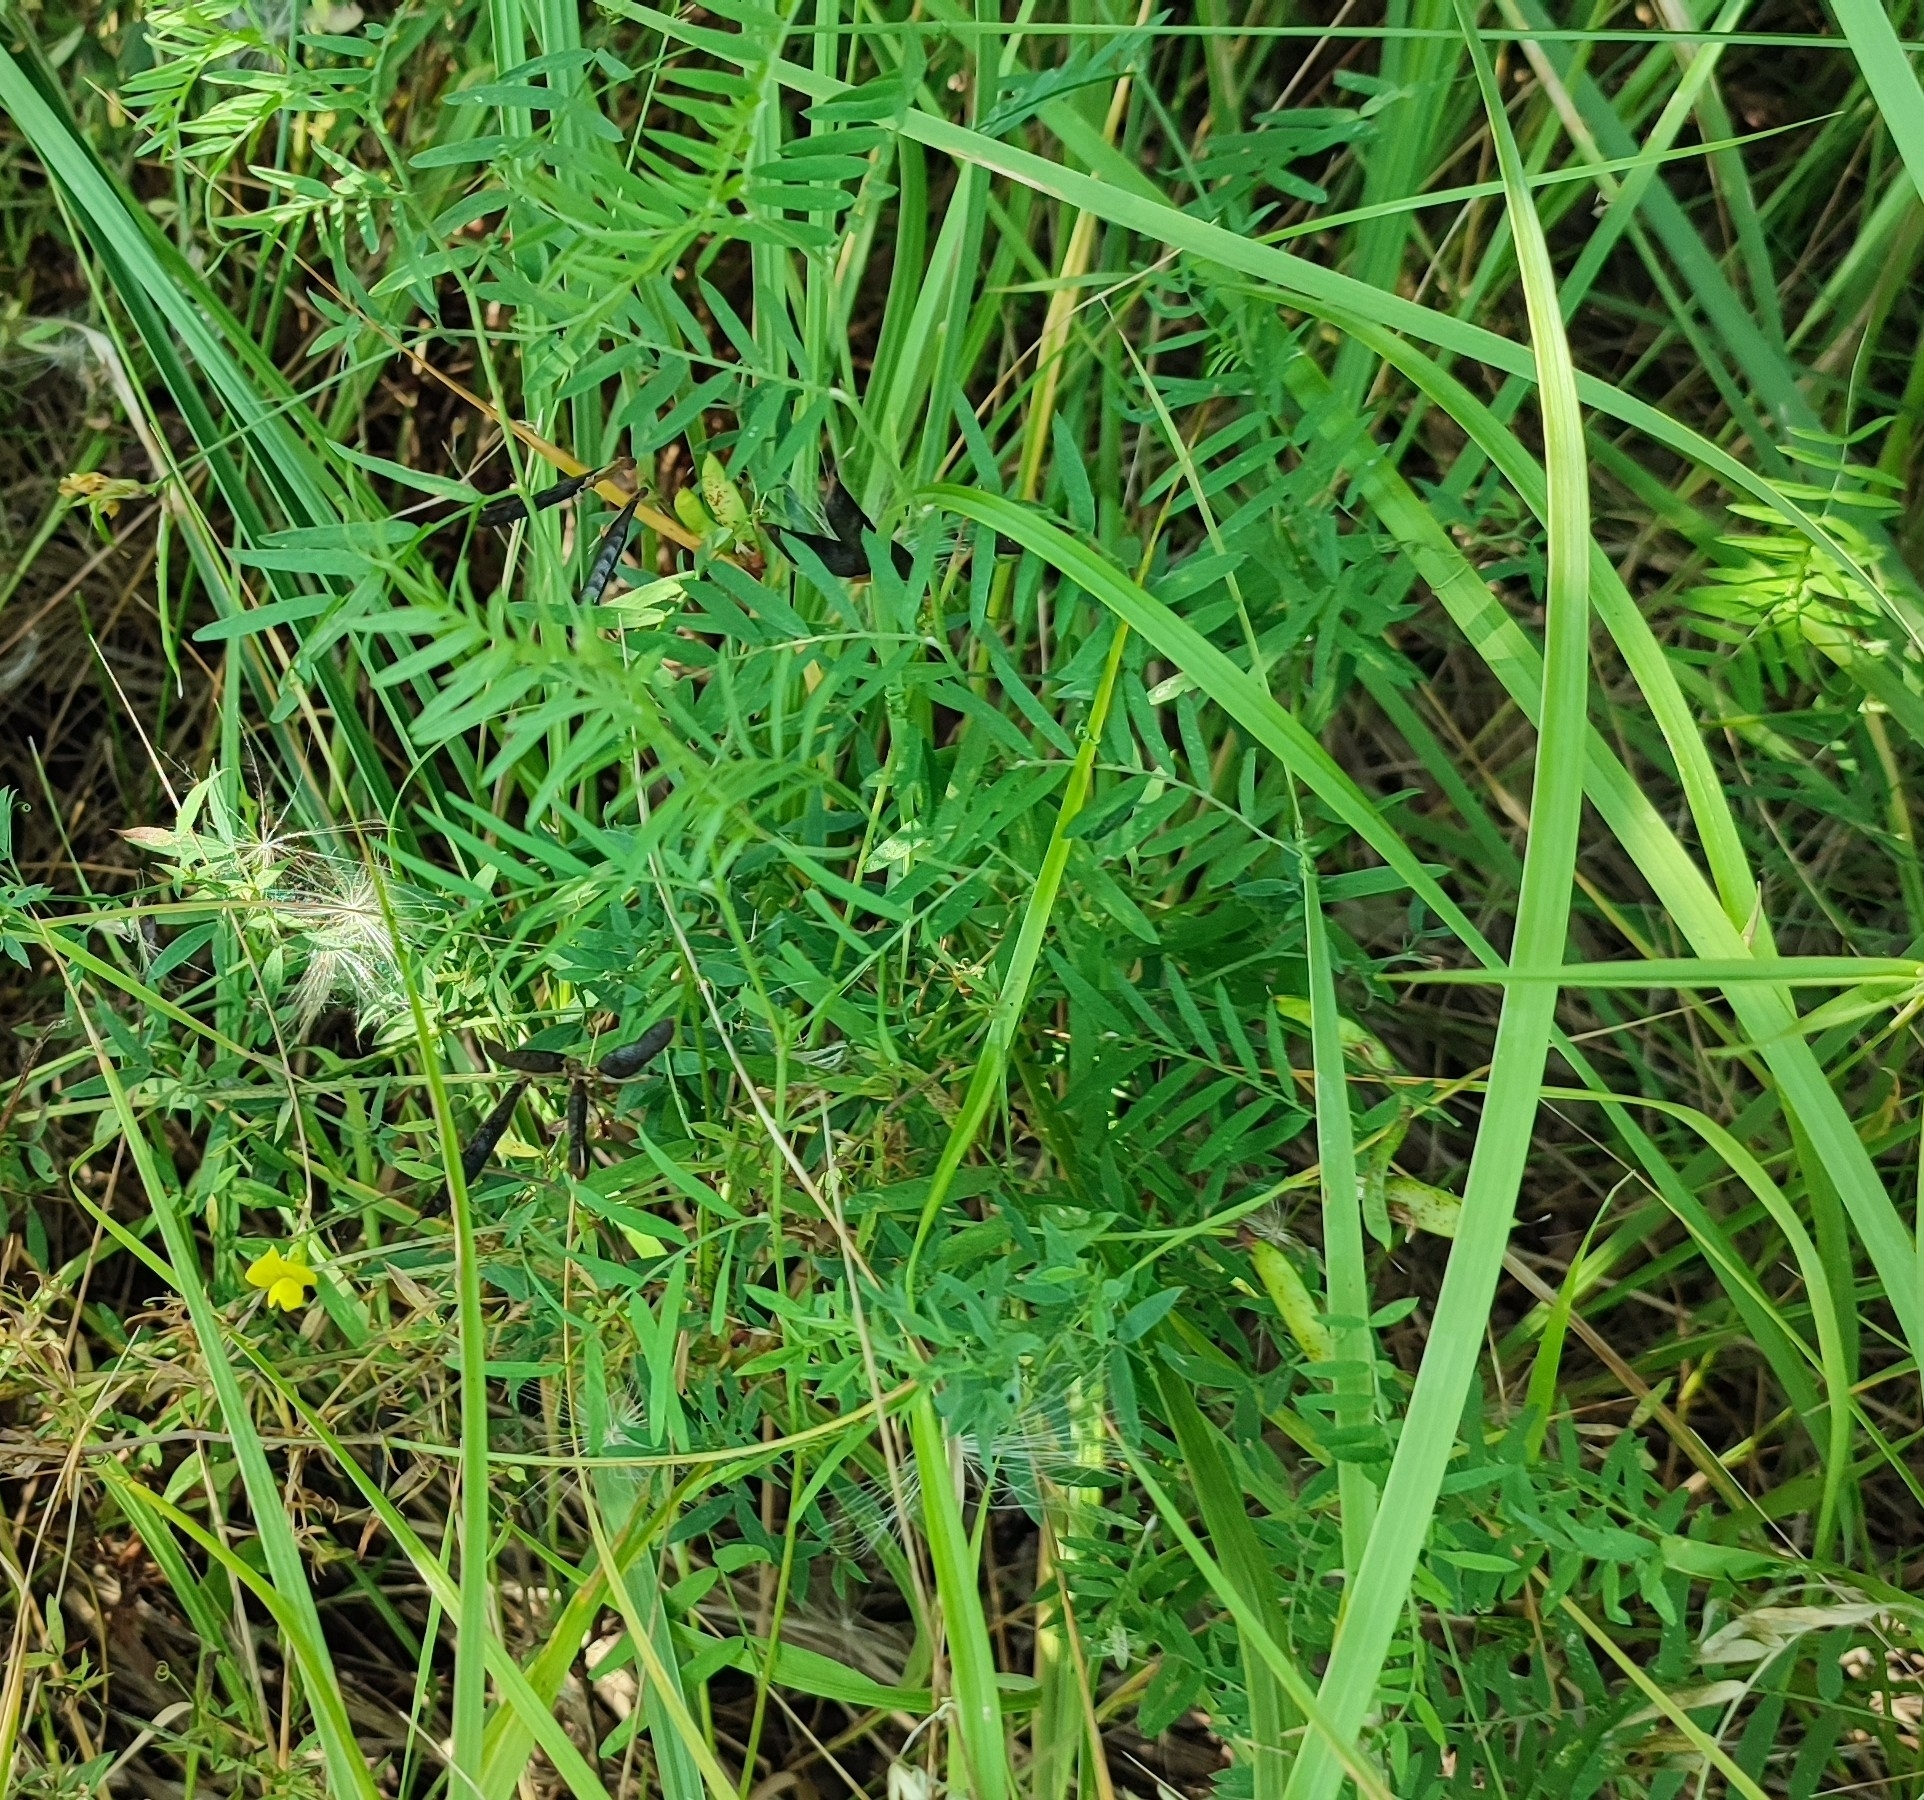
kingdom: Plantae
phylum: Tracheophyta
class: Magnoliopsida
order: Fabales
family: Fabaceae
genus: Vicia
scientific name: Vicia cracca
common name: Bird vetch
